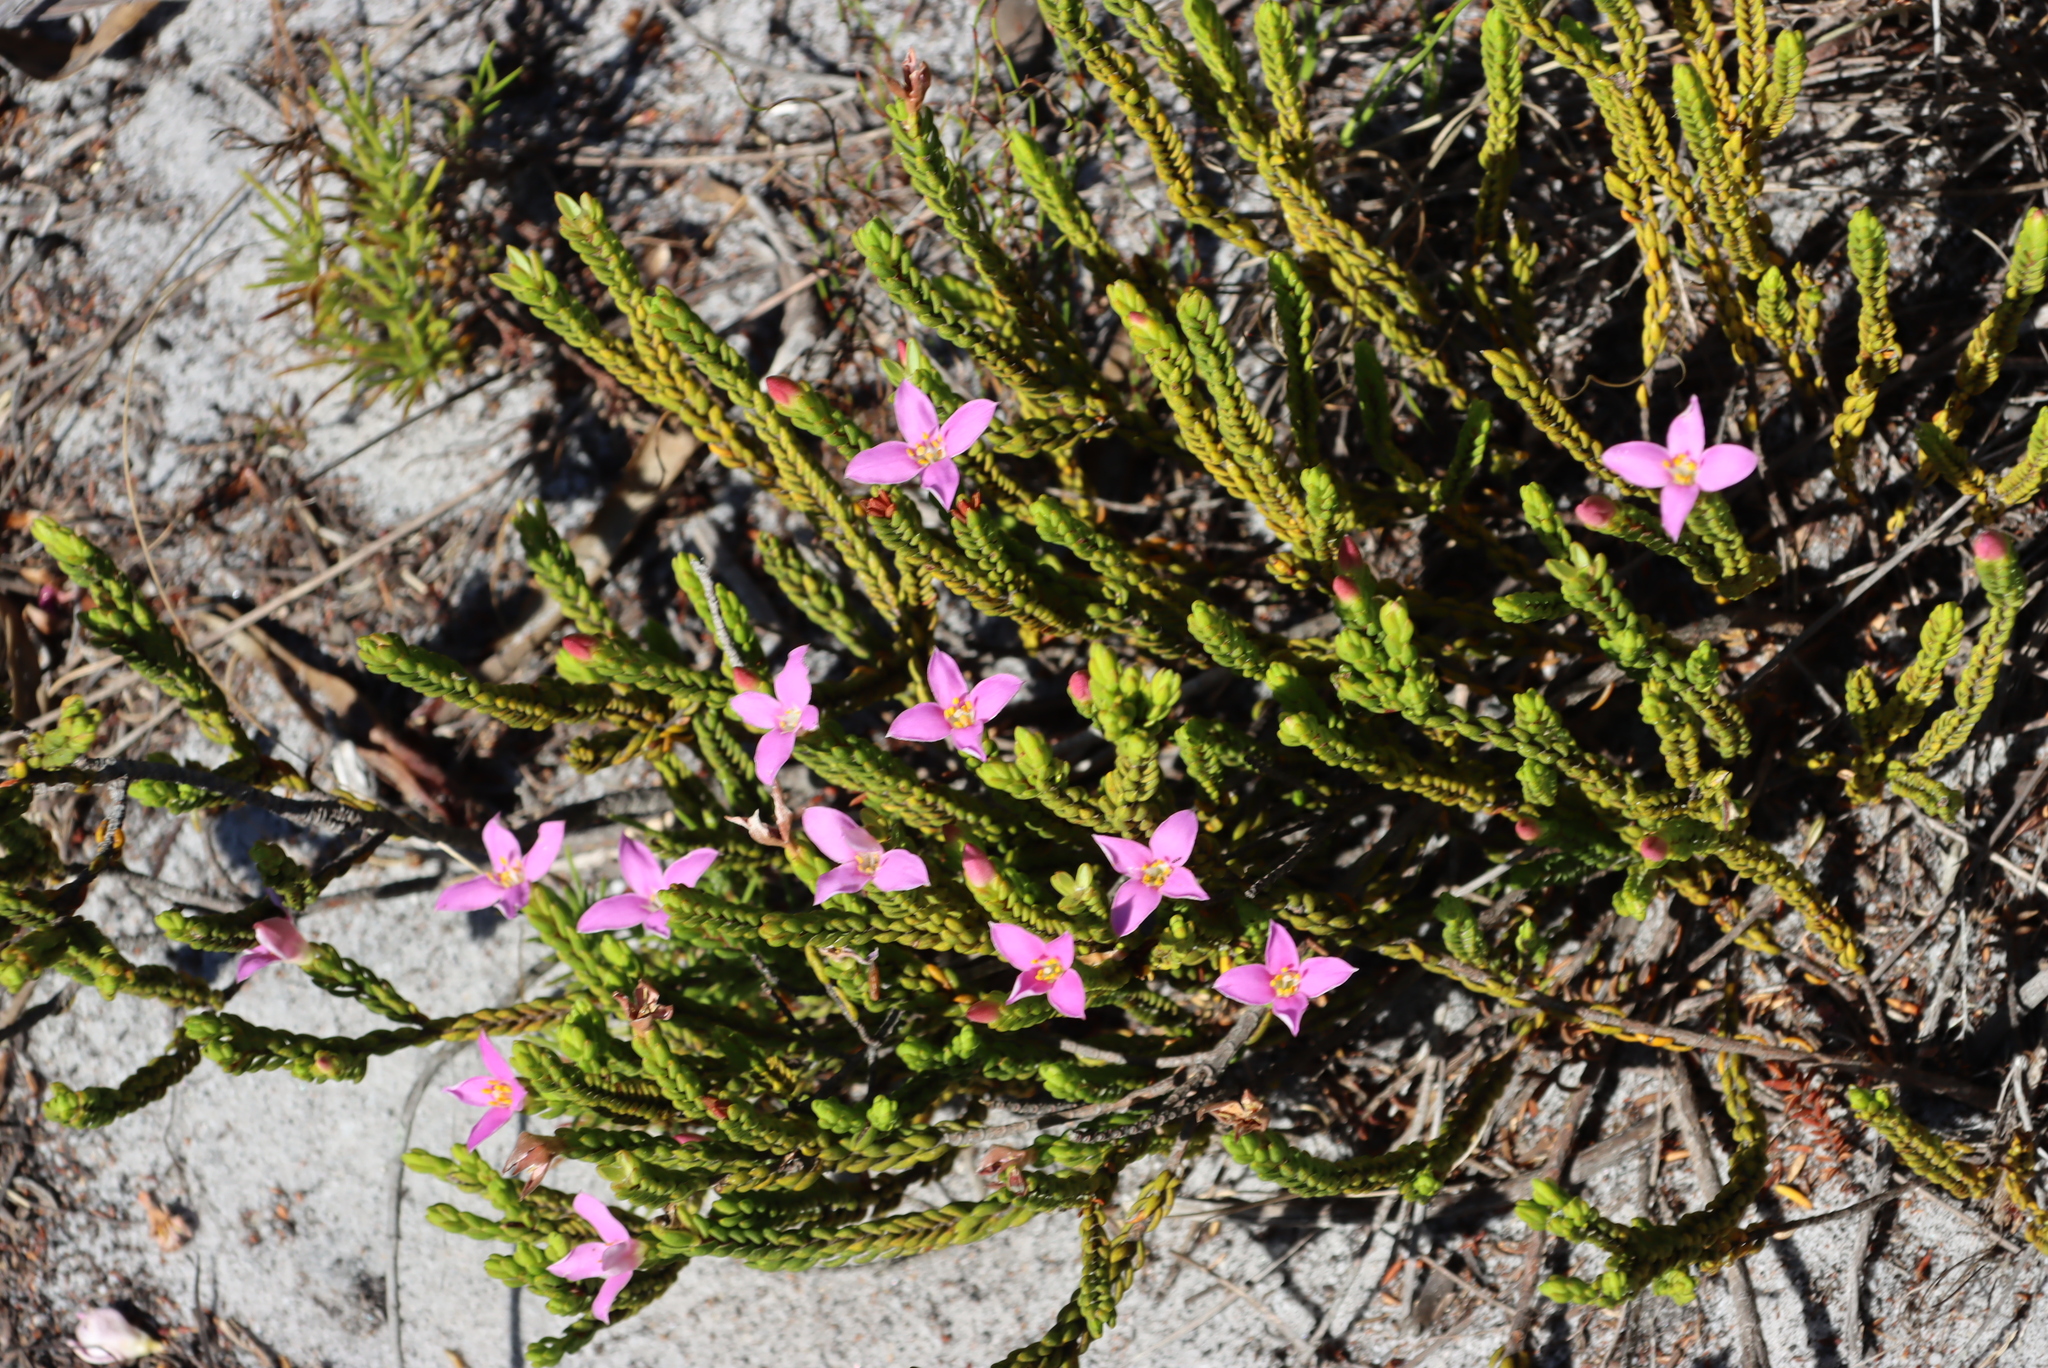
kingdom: Plantae
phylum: Tracheophyta
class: Magnoliopsida
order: Malvales
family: Thymelaeaceae
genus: Lachnaea
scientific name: Lachnaea grandiflora
